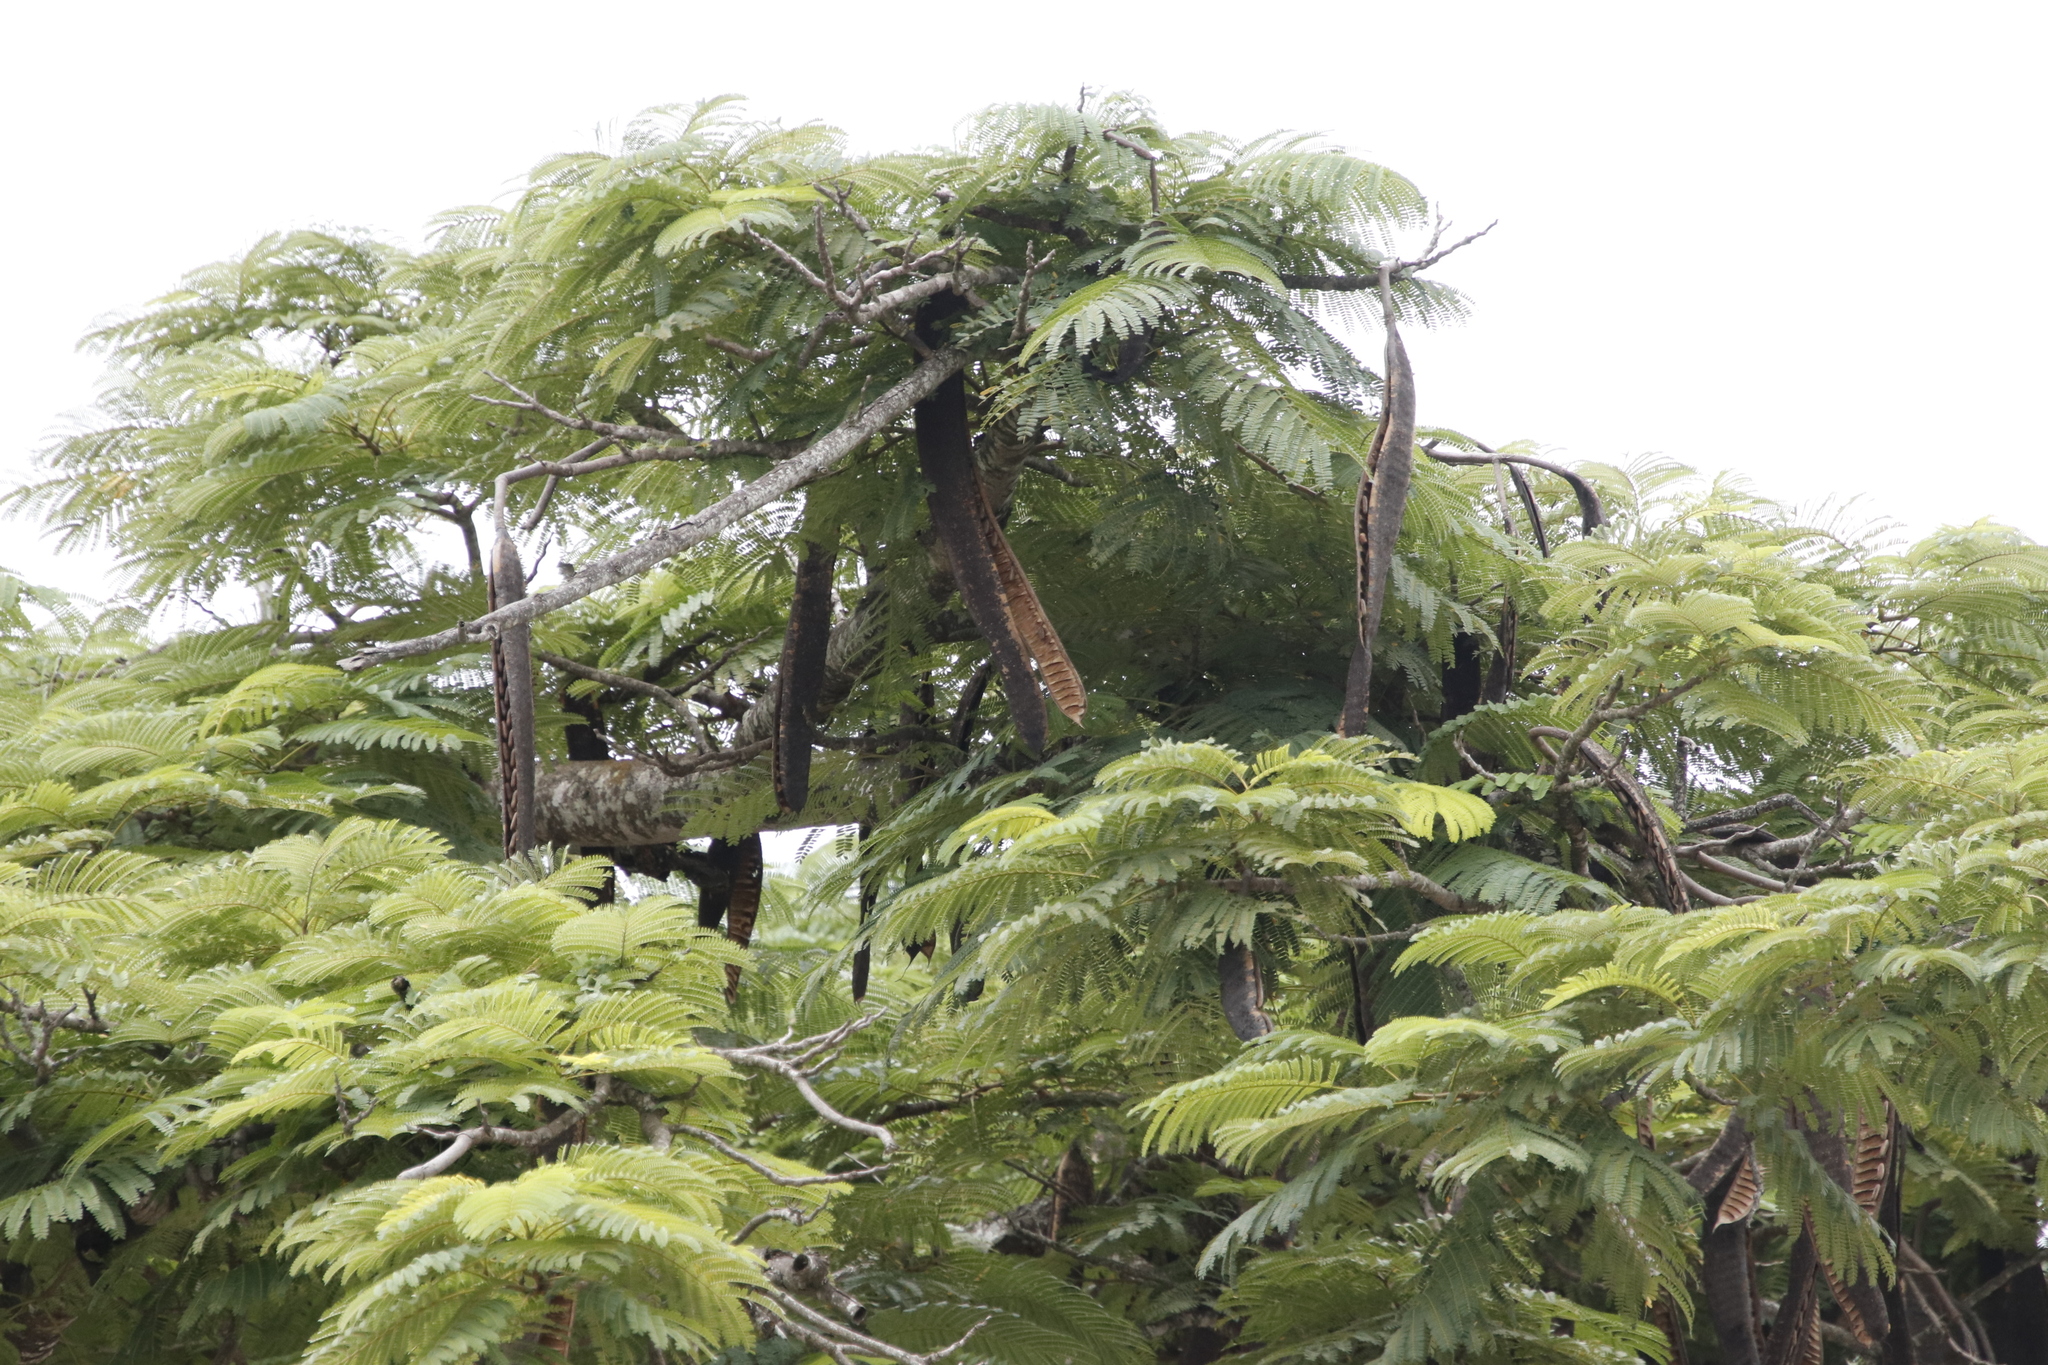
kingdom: Plantae
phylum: Tracheophyta
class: Magnoliopsida
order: Fabales
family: Fabaceae
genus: Delonix
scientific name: Delonix regia
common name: Royal poinciana
